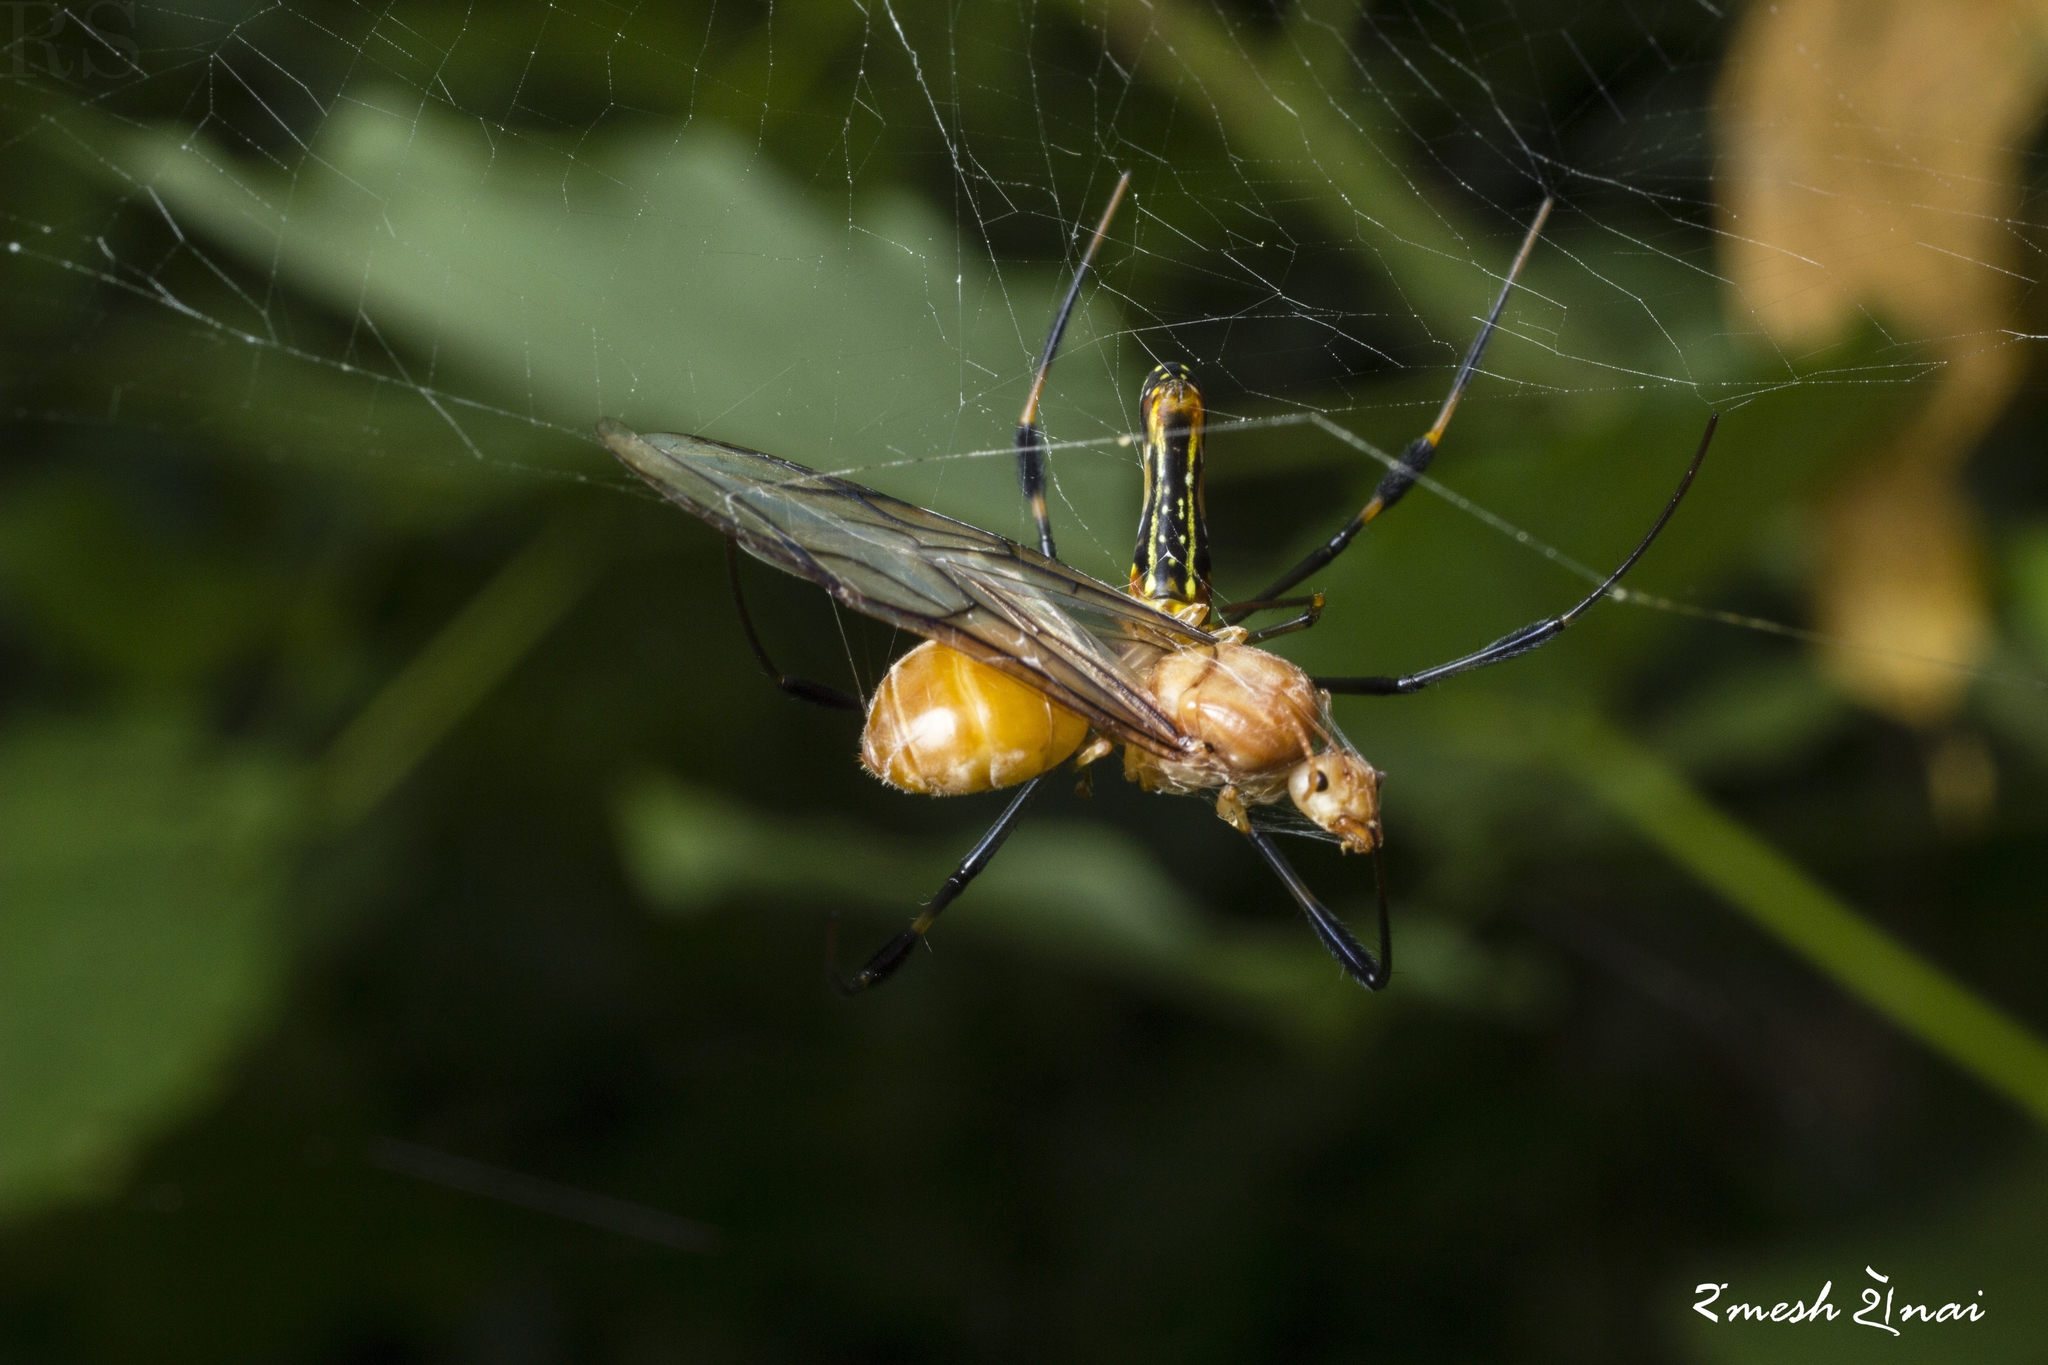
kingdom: Animalia
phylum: Arthropoda
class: Arachnida
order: Araneae
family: Araneidae
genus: Nephila
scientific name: Nephila pilipes
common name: Giant golden orb weaver
